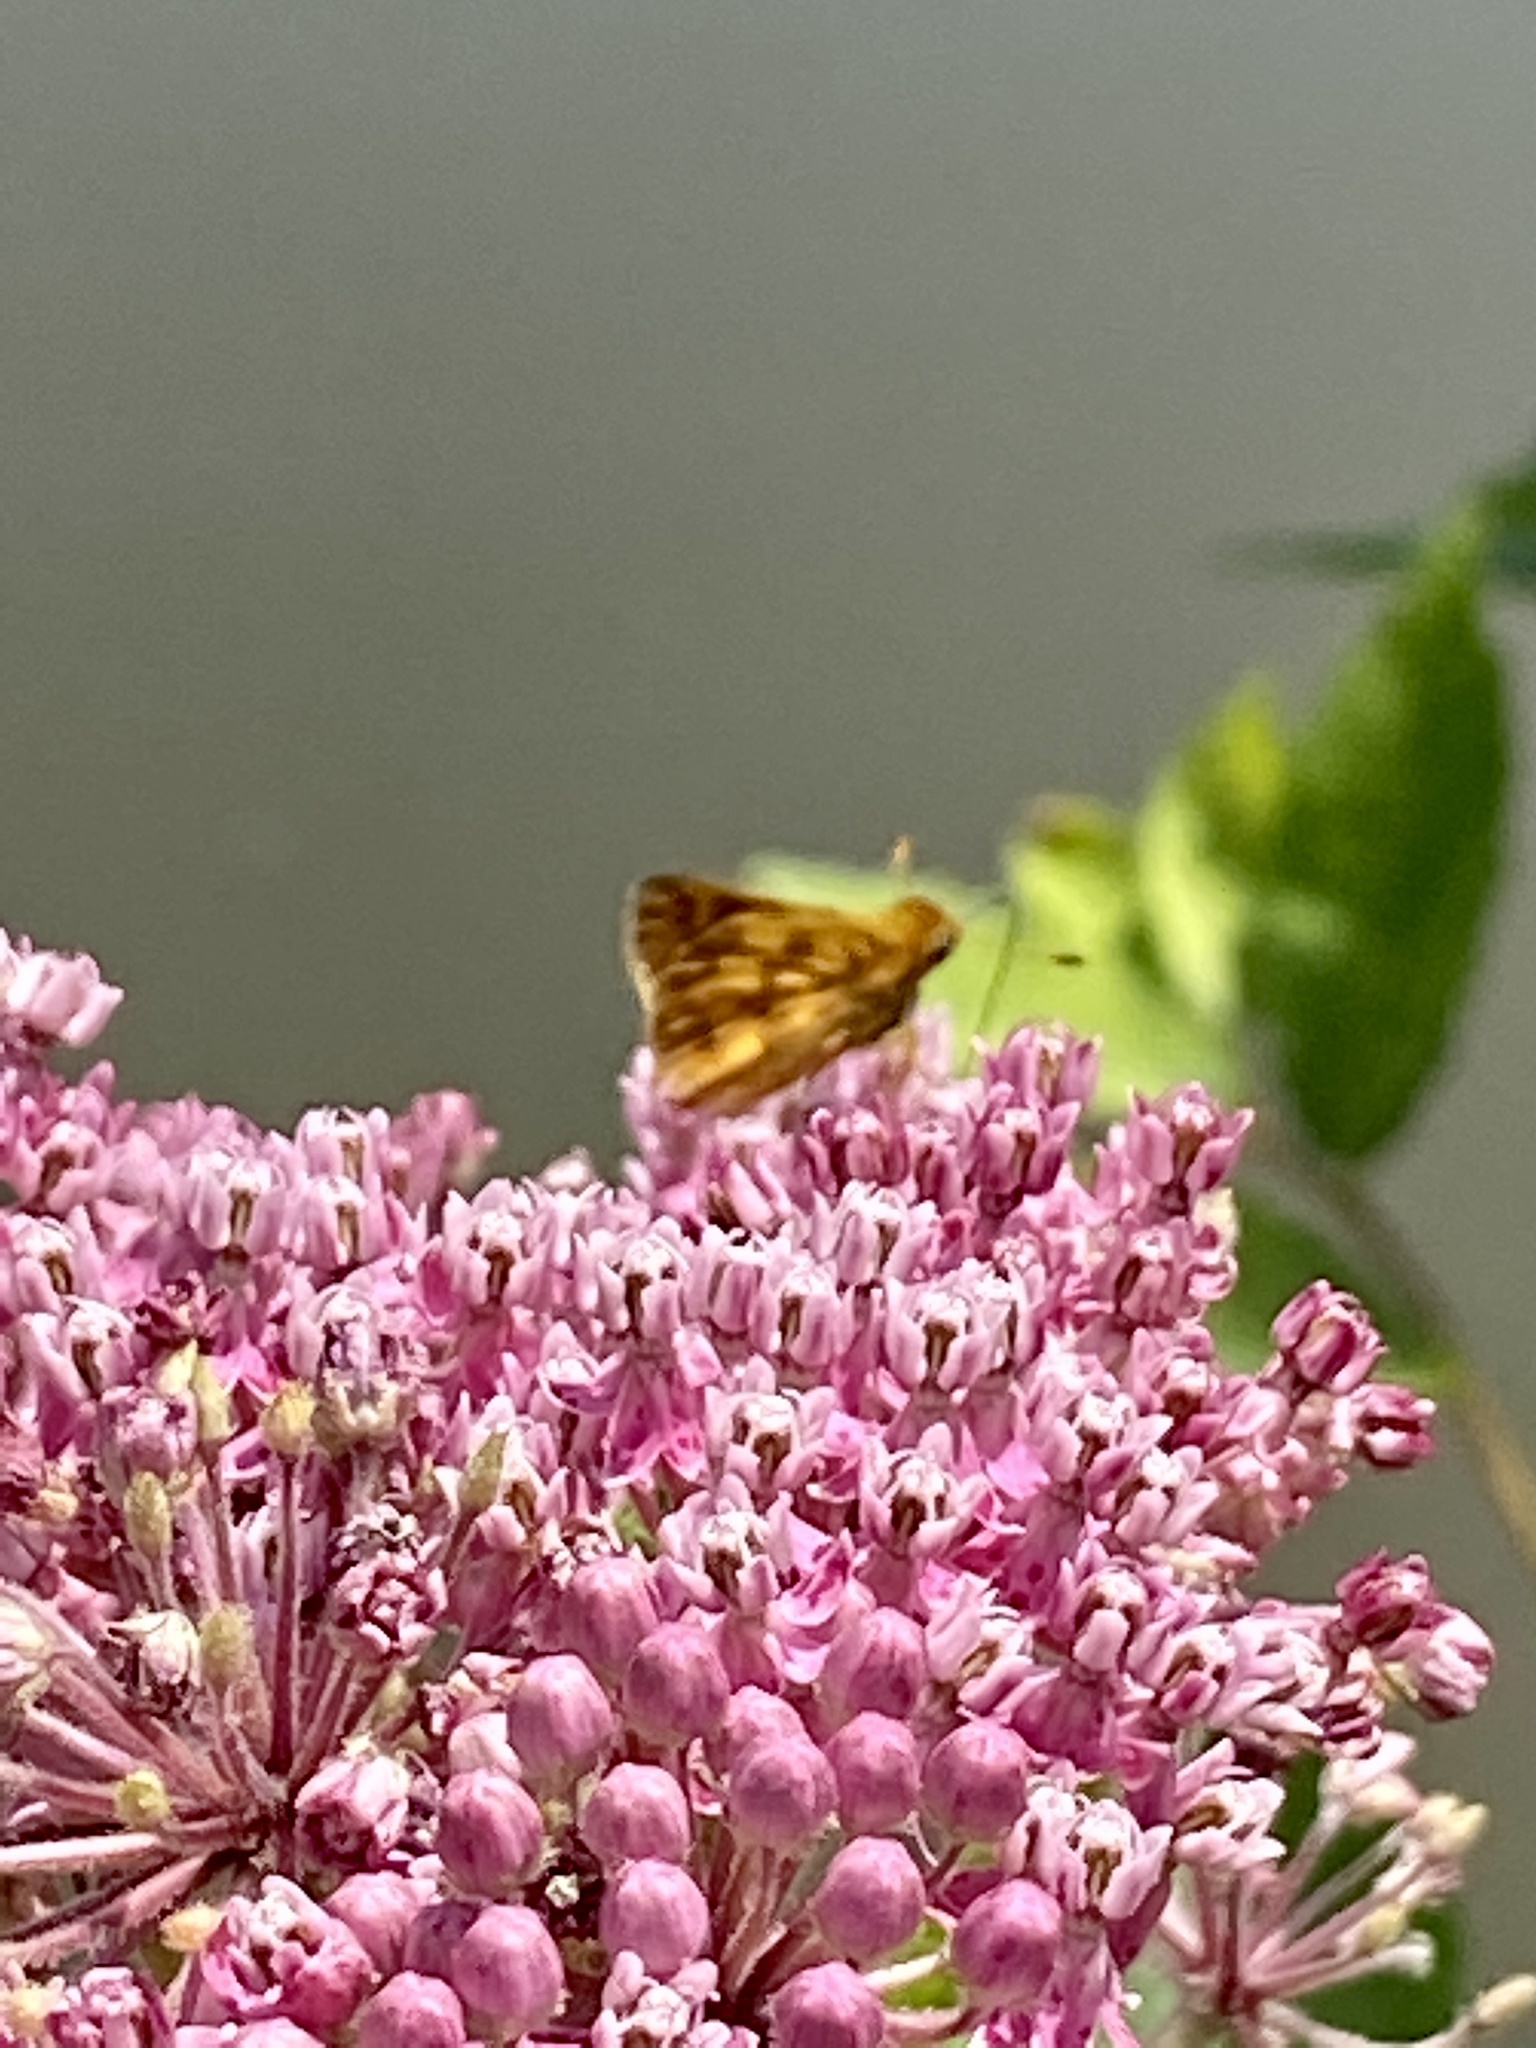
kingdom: Animalia
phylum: Arthropoda
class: Insecta
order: Lepidoptera
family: Hesperiidae
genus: Polites
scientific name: Polites coras
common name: Peck's skipper
